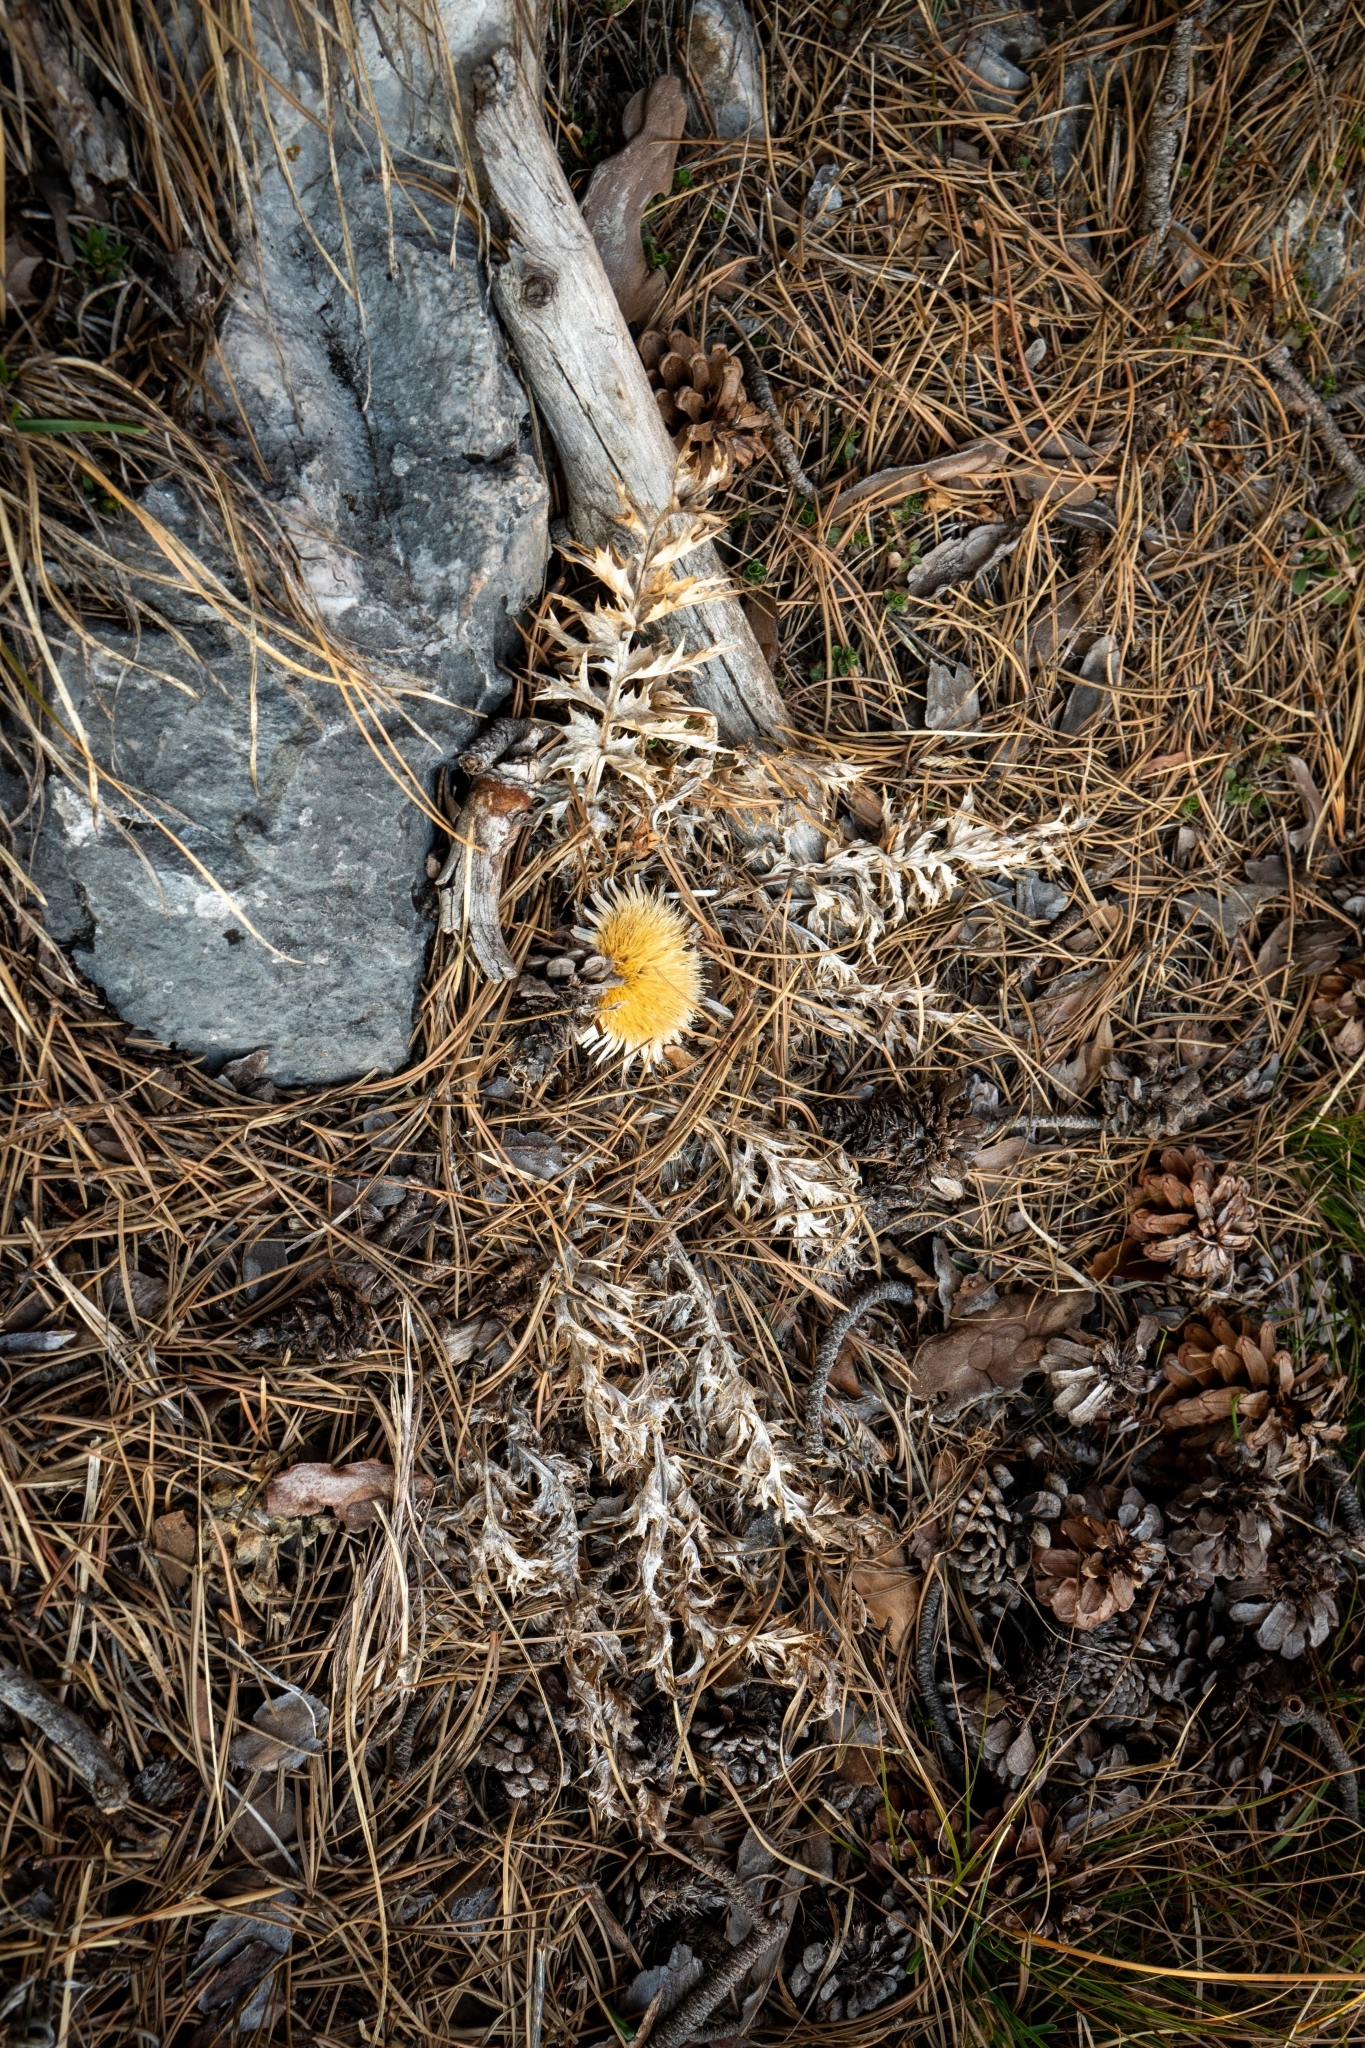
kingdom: Plantae
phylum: Tracheophyta
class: Magnoliopsida
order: Asterales
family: Asteraceae
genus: Carlina
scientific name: Carlina acaulis
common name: Stemless carline thistle
